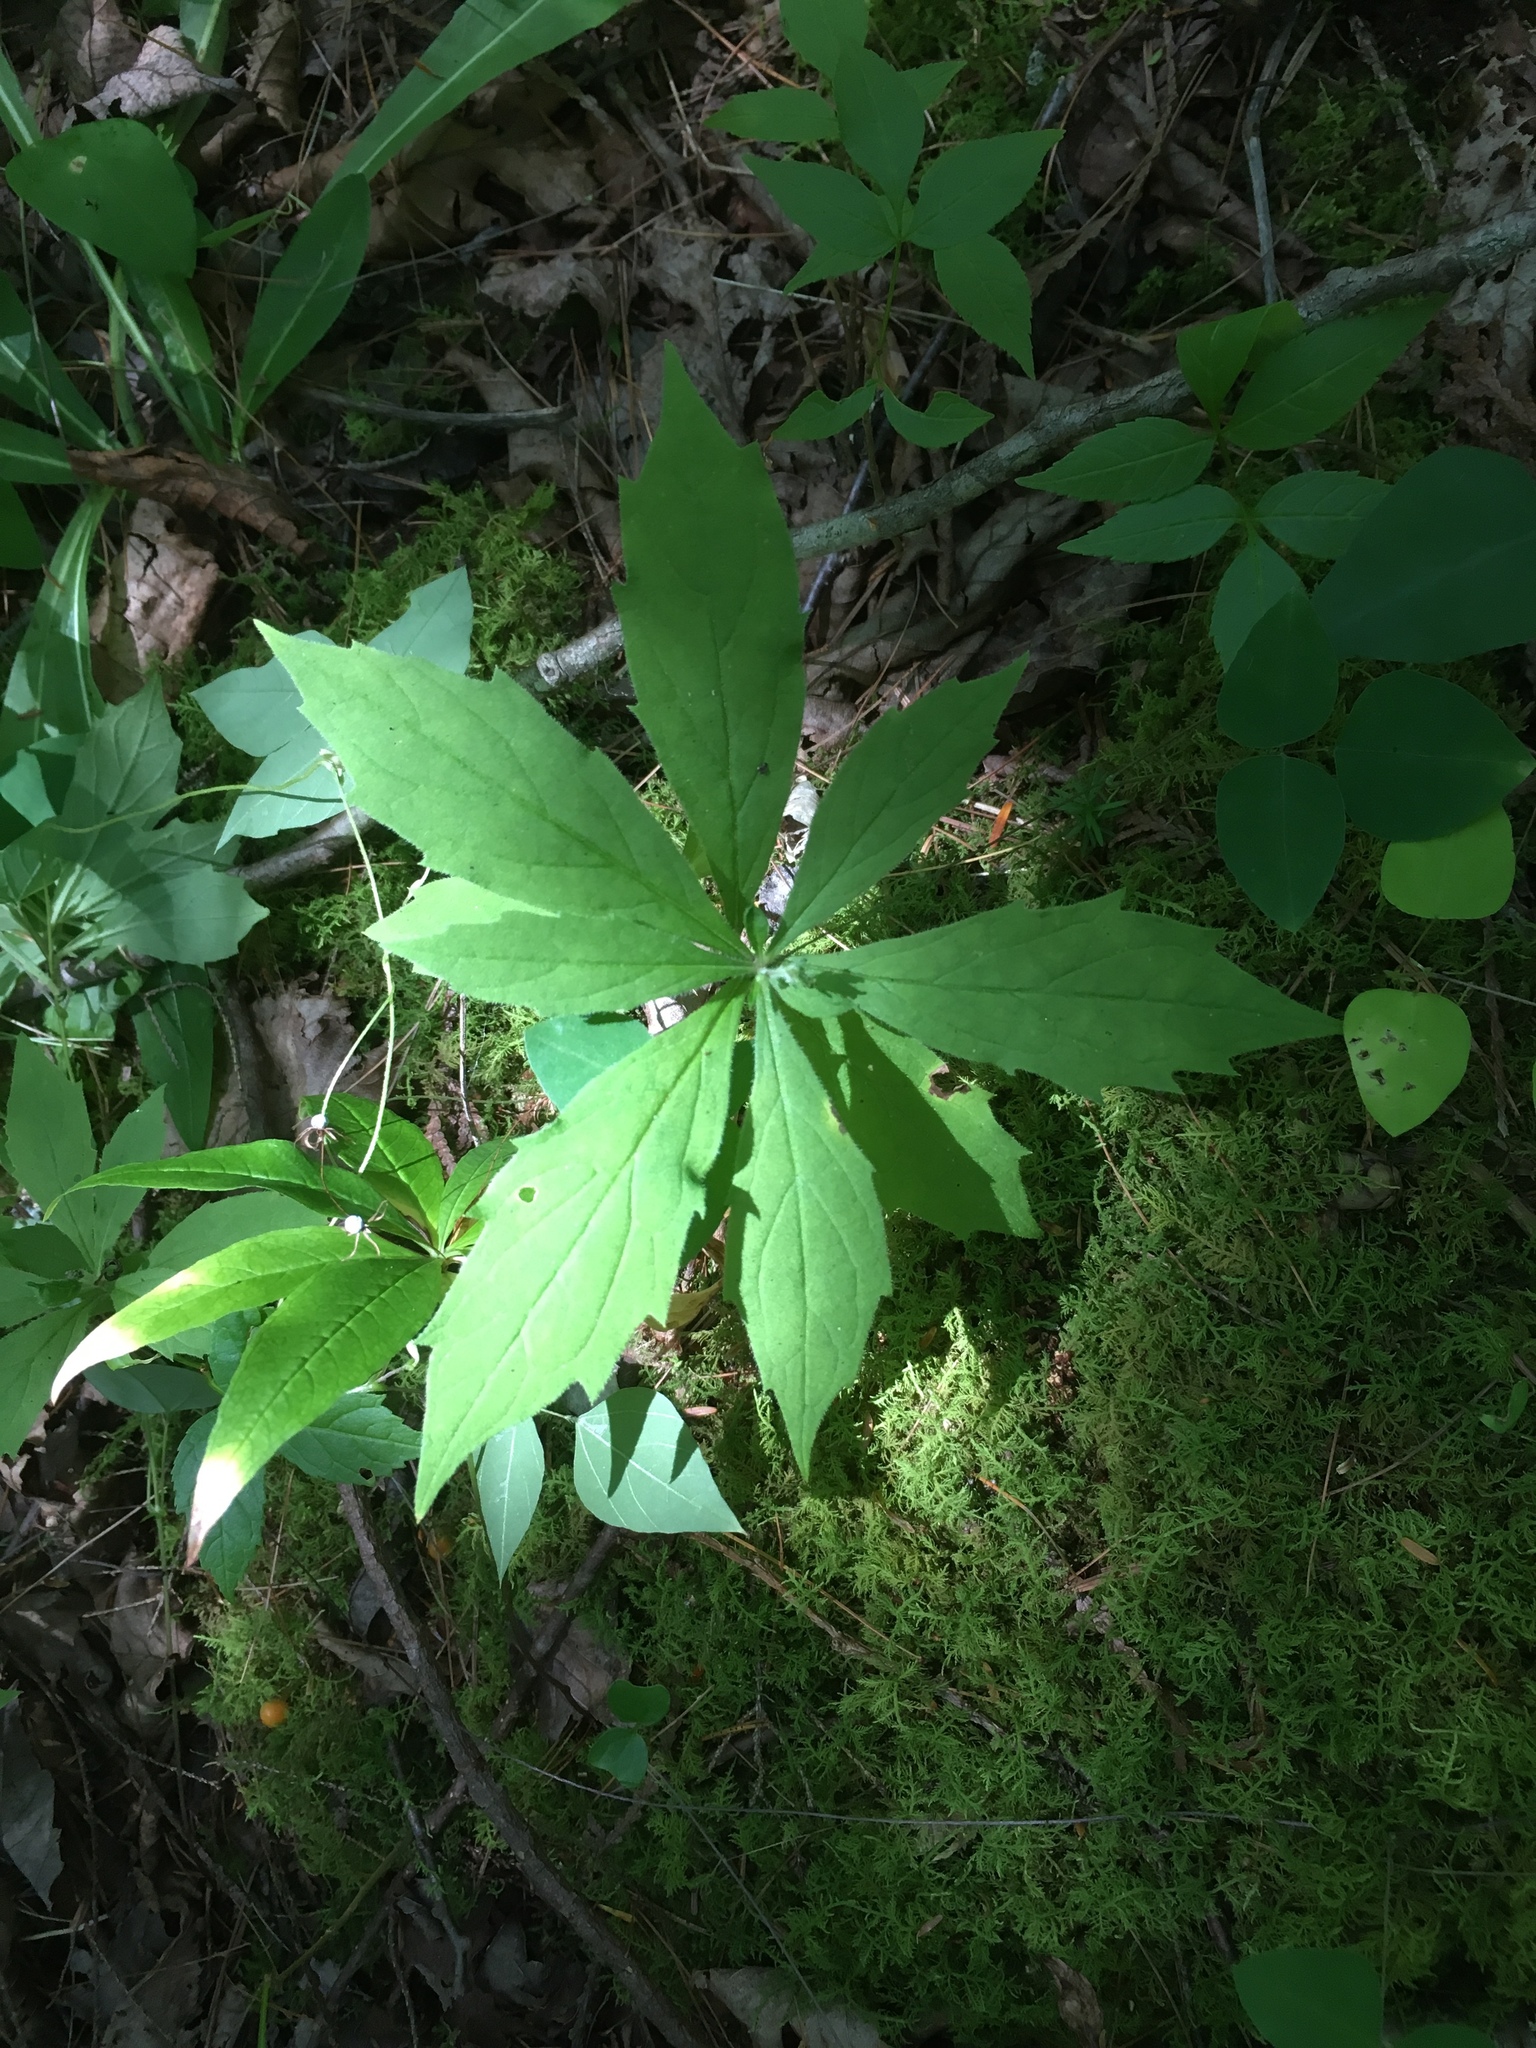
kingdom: Plantae
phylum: Tracheophyta
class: Magnoliopsida
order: Asterales
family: Asteraceae
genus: Oclemena
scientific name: Oclemena acuminata
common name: Mountain aster
